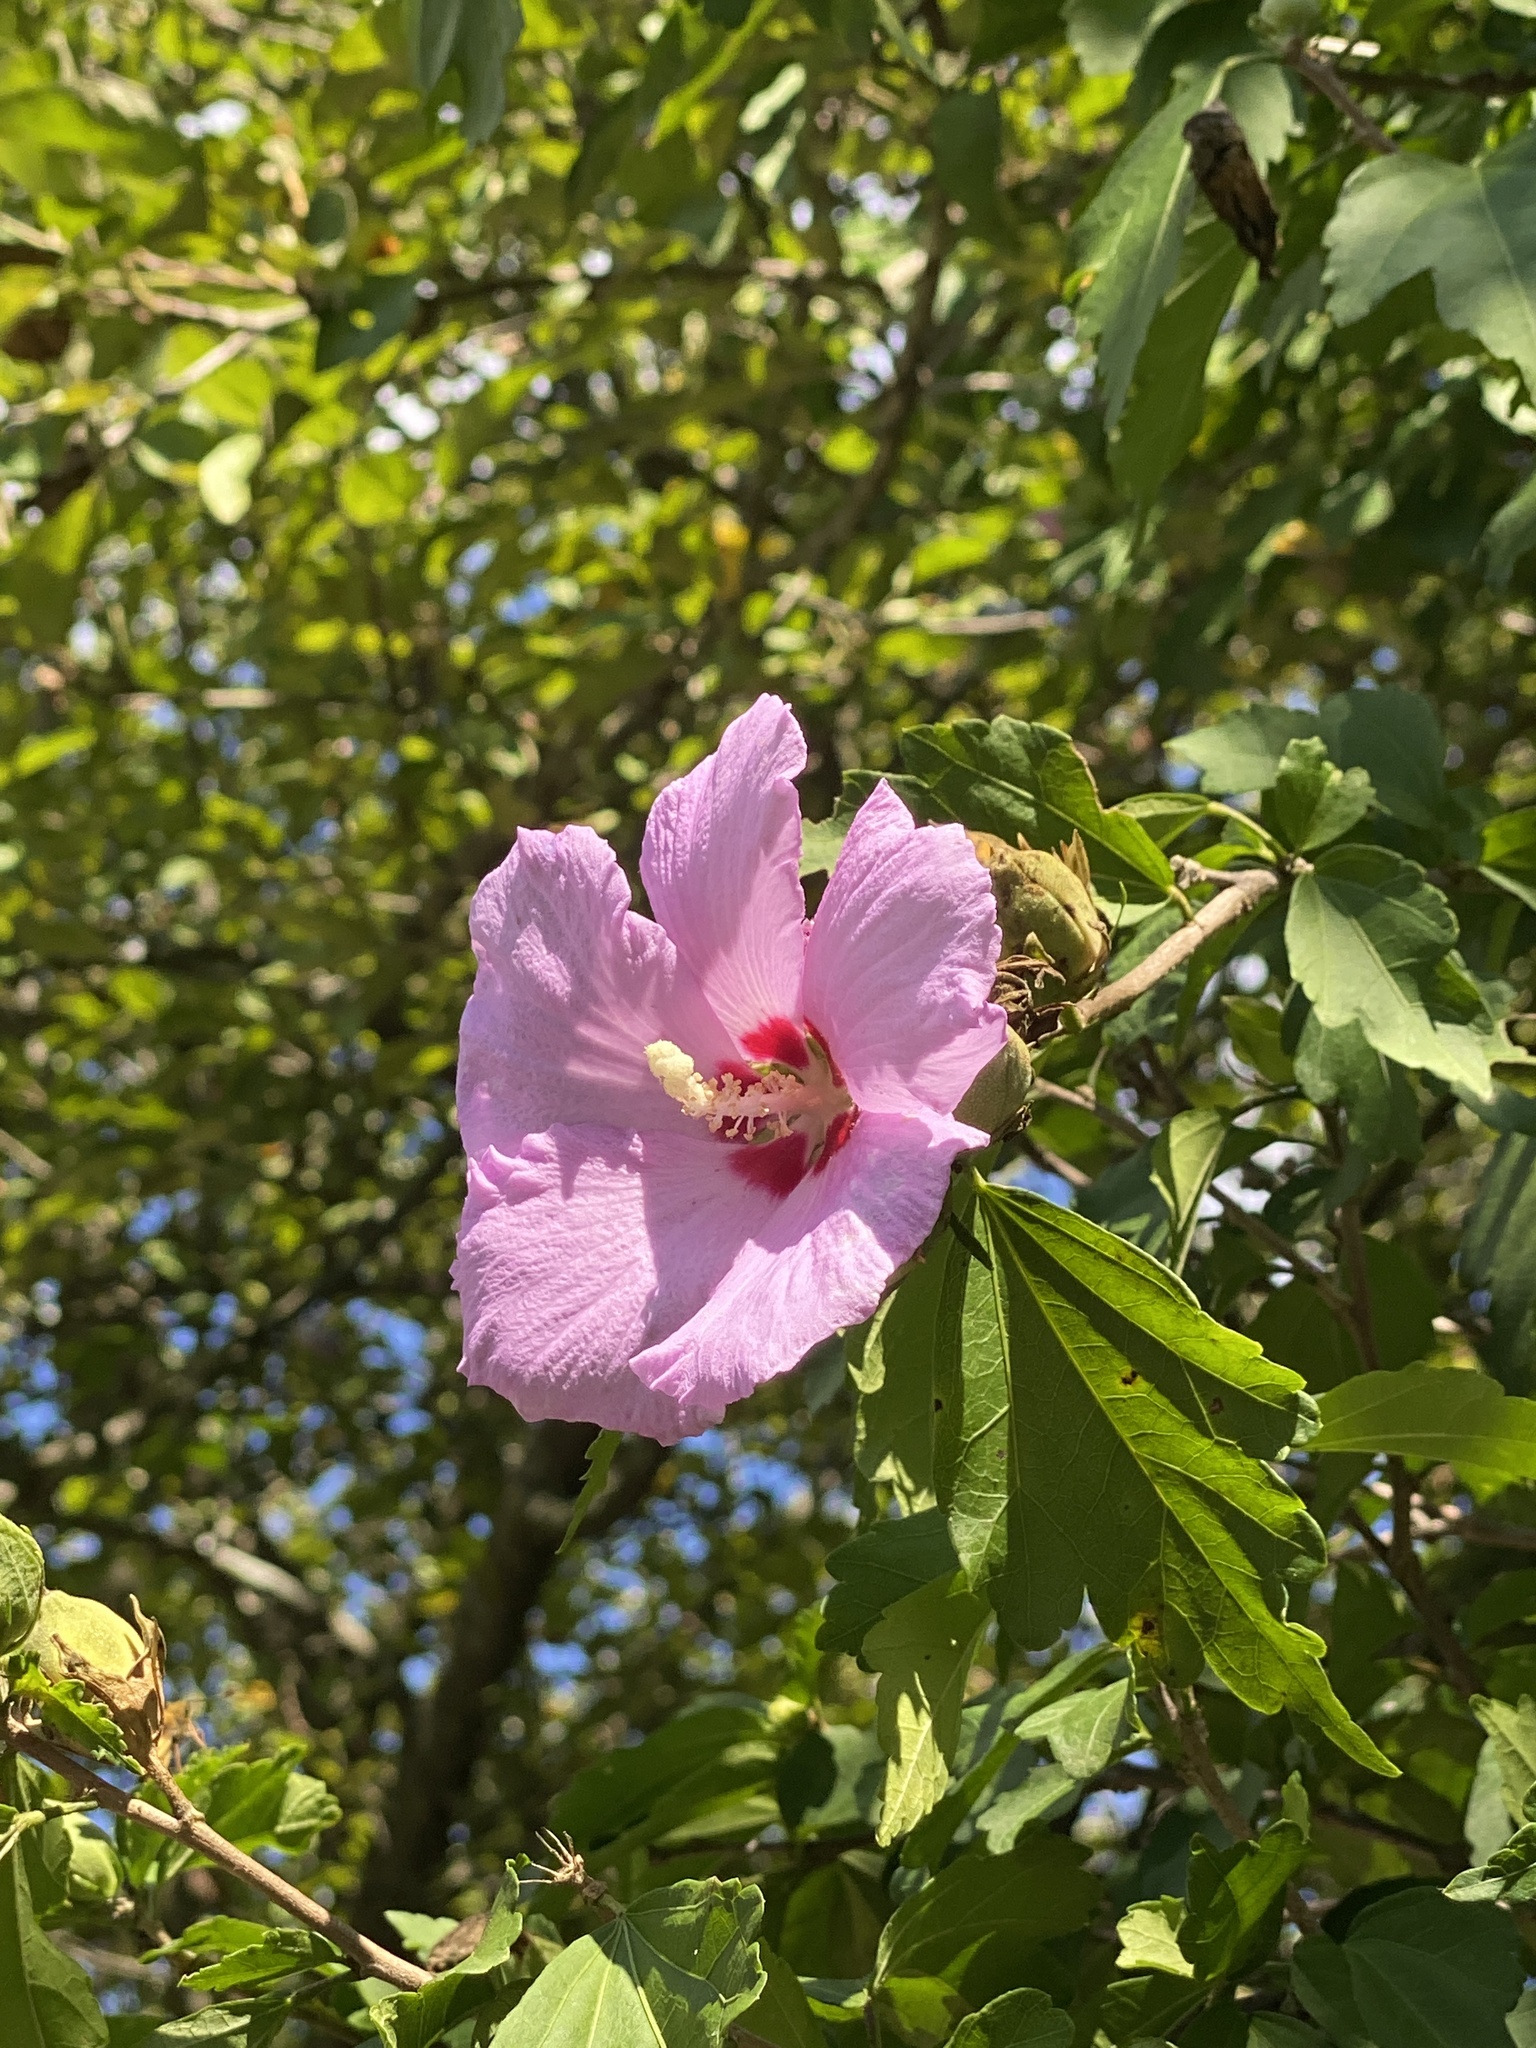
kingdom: Plantae
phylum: Tracheophyta
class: Magnoliopsida
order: Malvales
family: Malvaceae
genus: Hibiscus
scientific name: Hibiscus syriacus
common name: Syrian ketmia
